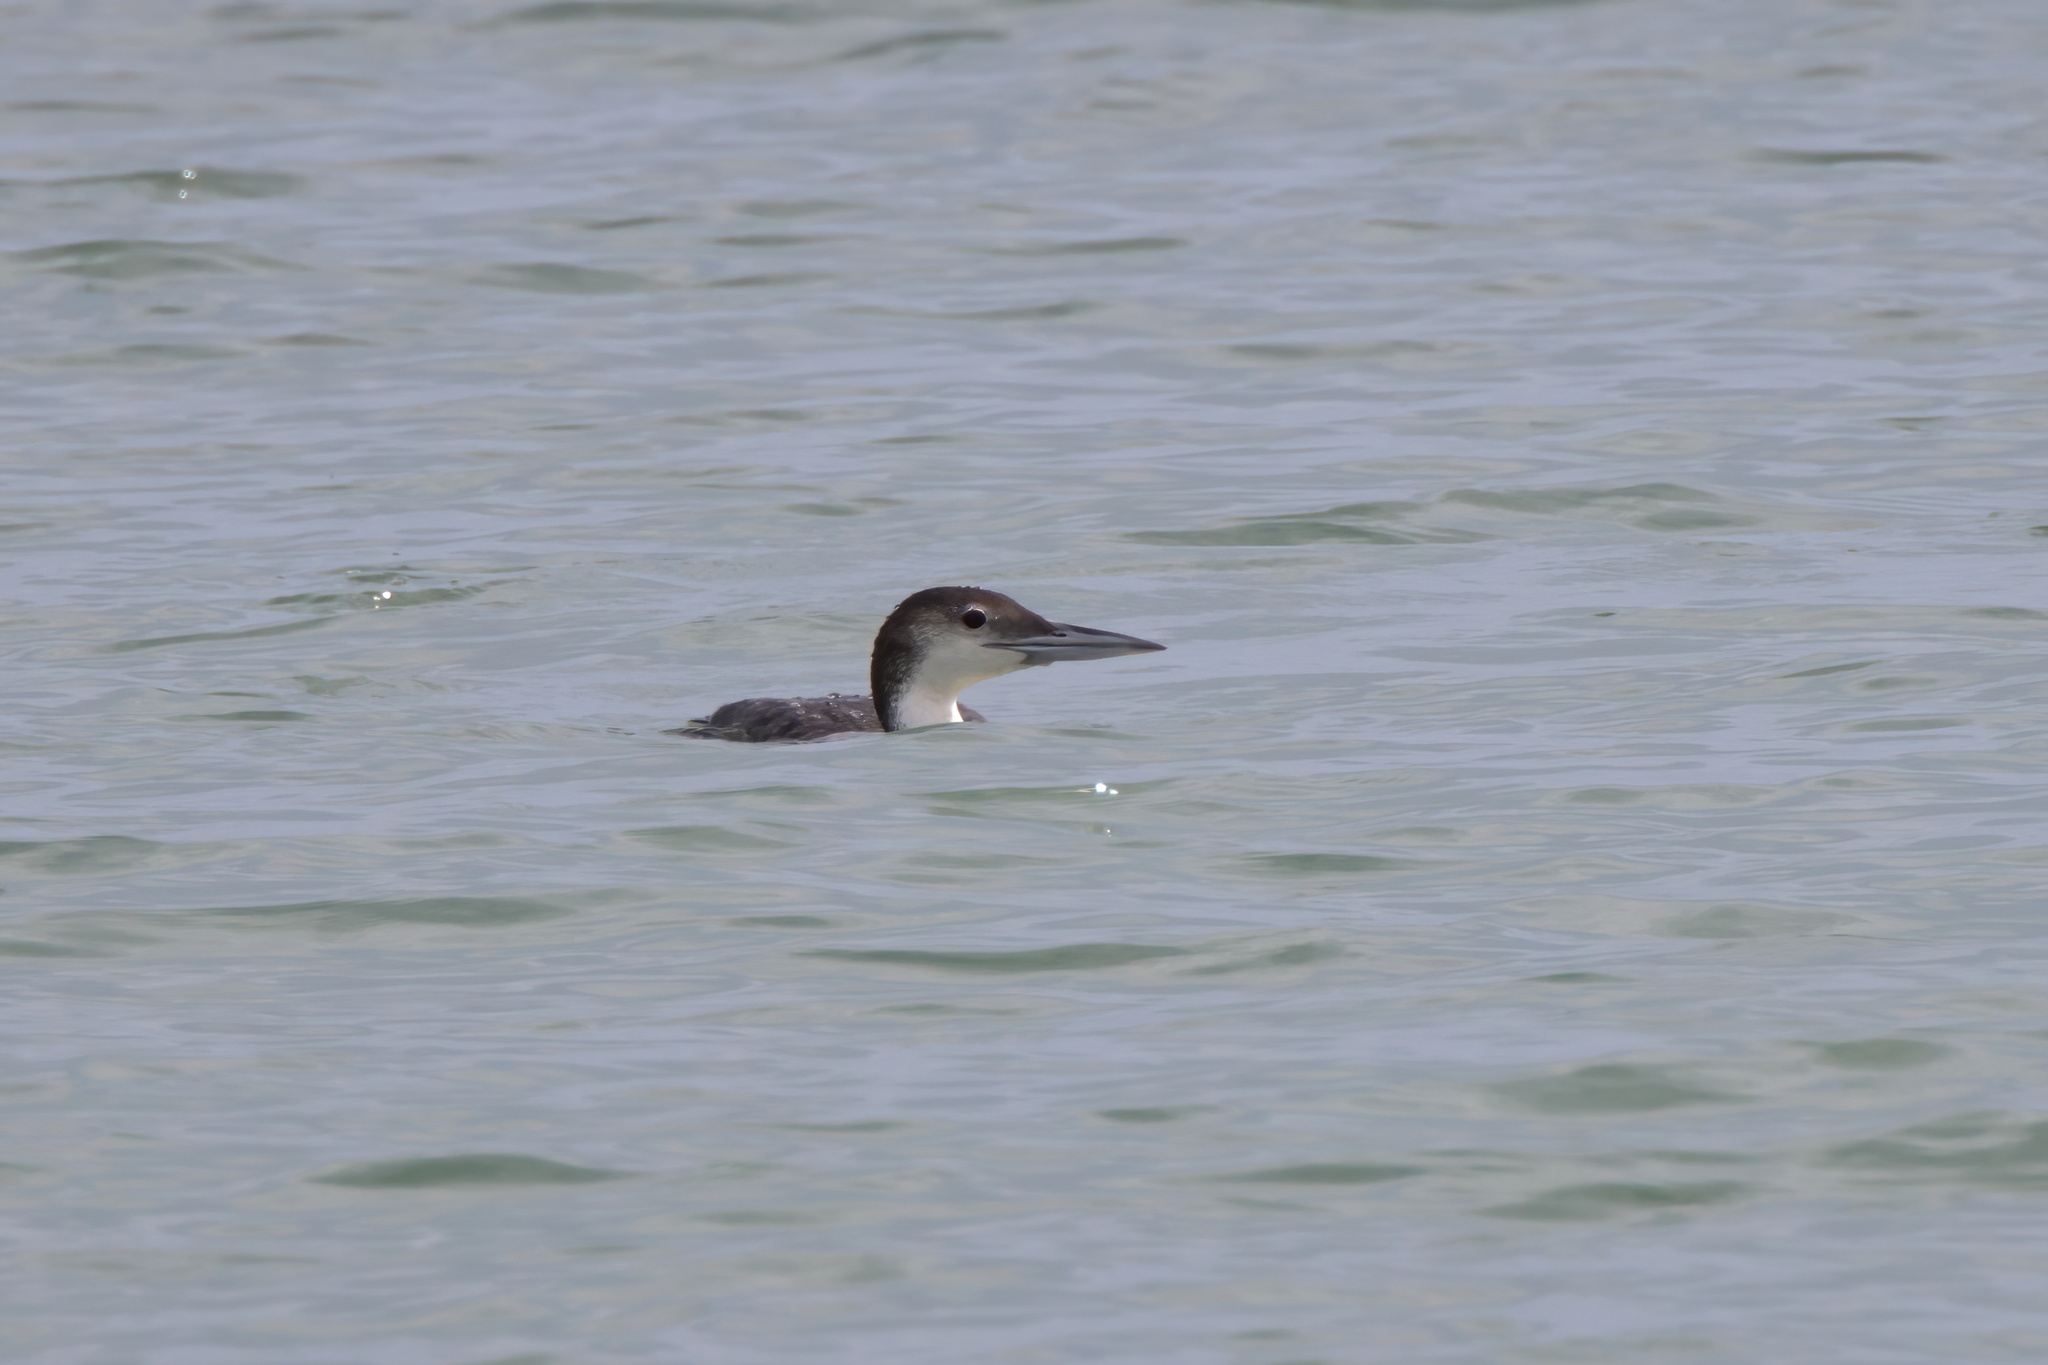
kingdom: Animalia
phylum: Chordata
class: Aves
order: Gaviiformes
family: Gaviidae
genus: Gavia
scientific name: Gavia immer
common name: Common loon
